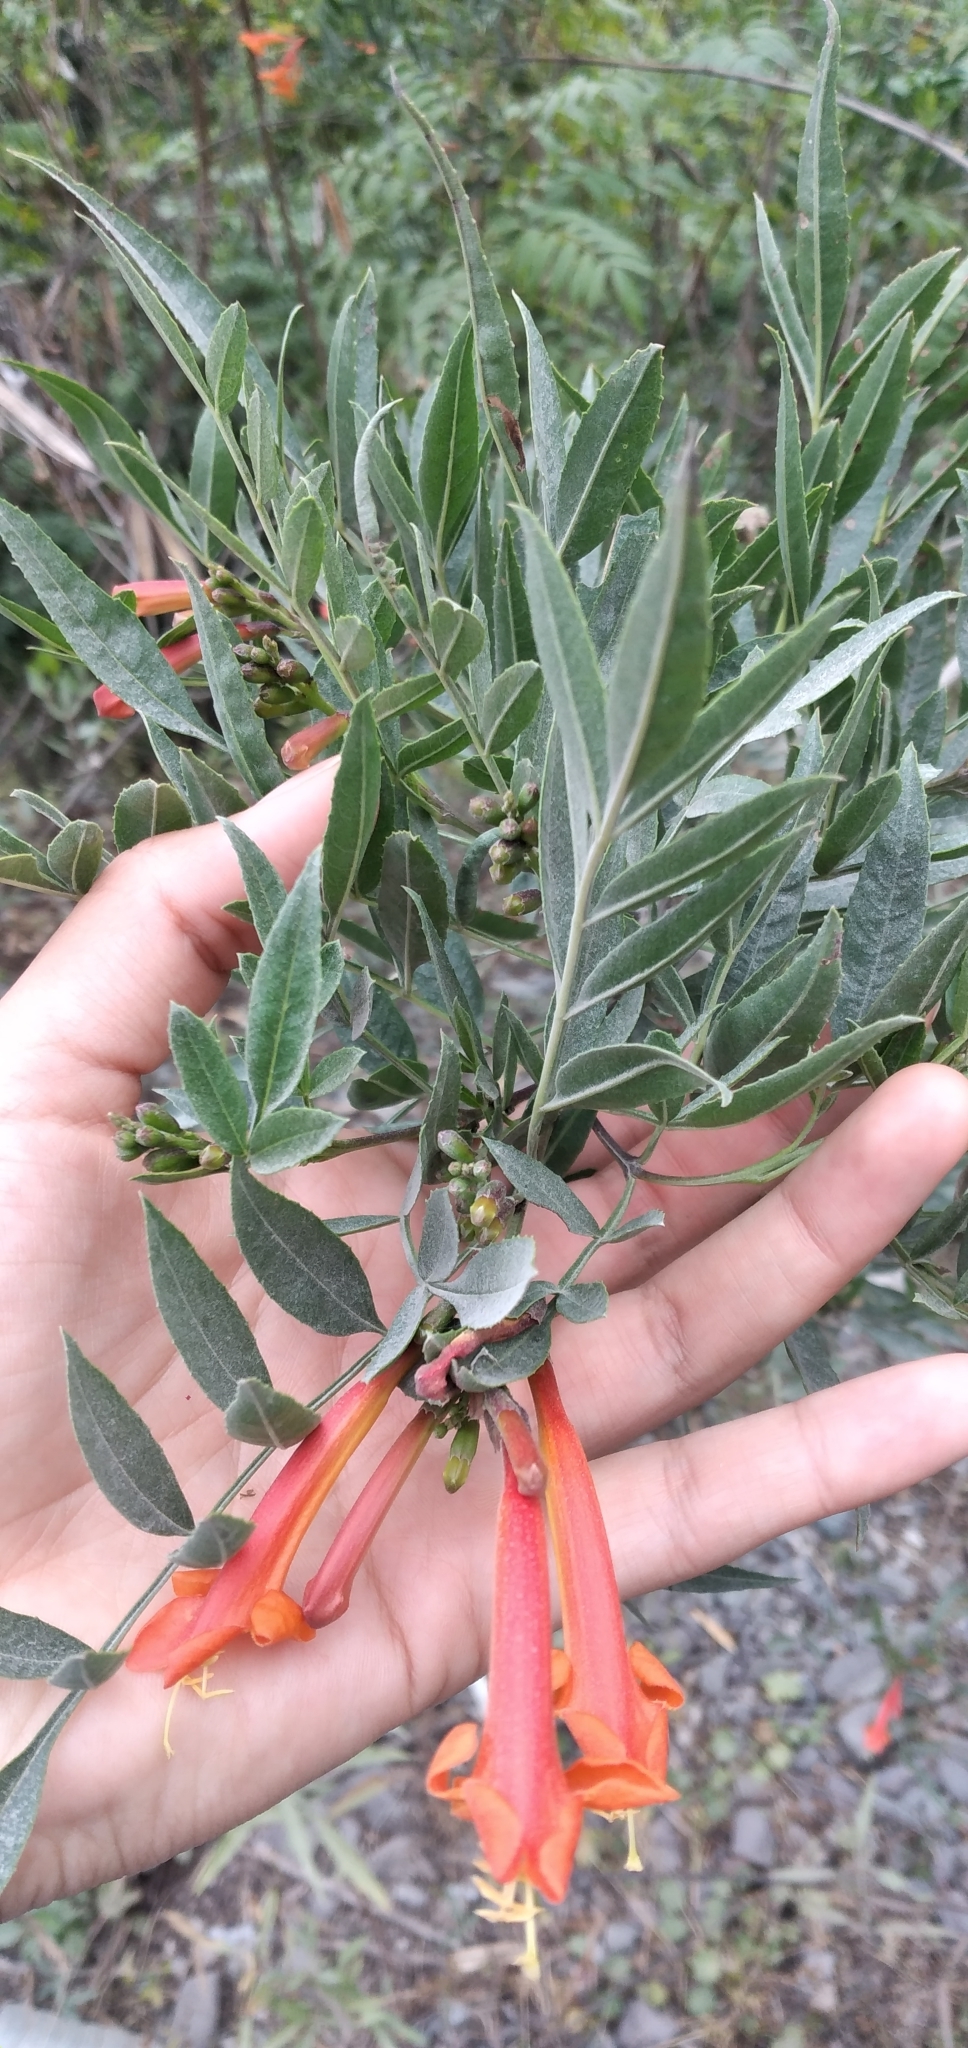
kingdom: Plantae
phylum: Tracheophyta
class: Magnoliopsida
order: Lamiales
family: Bignoniaceae
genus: Tecoma
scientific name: Tecoma tenuiflora
